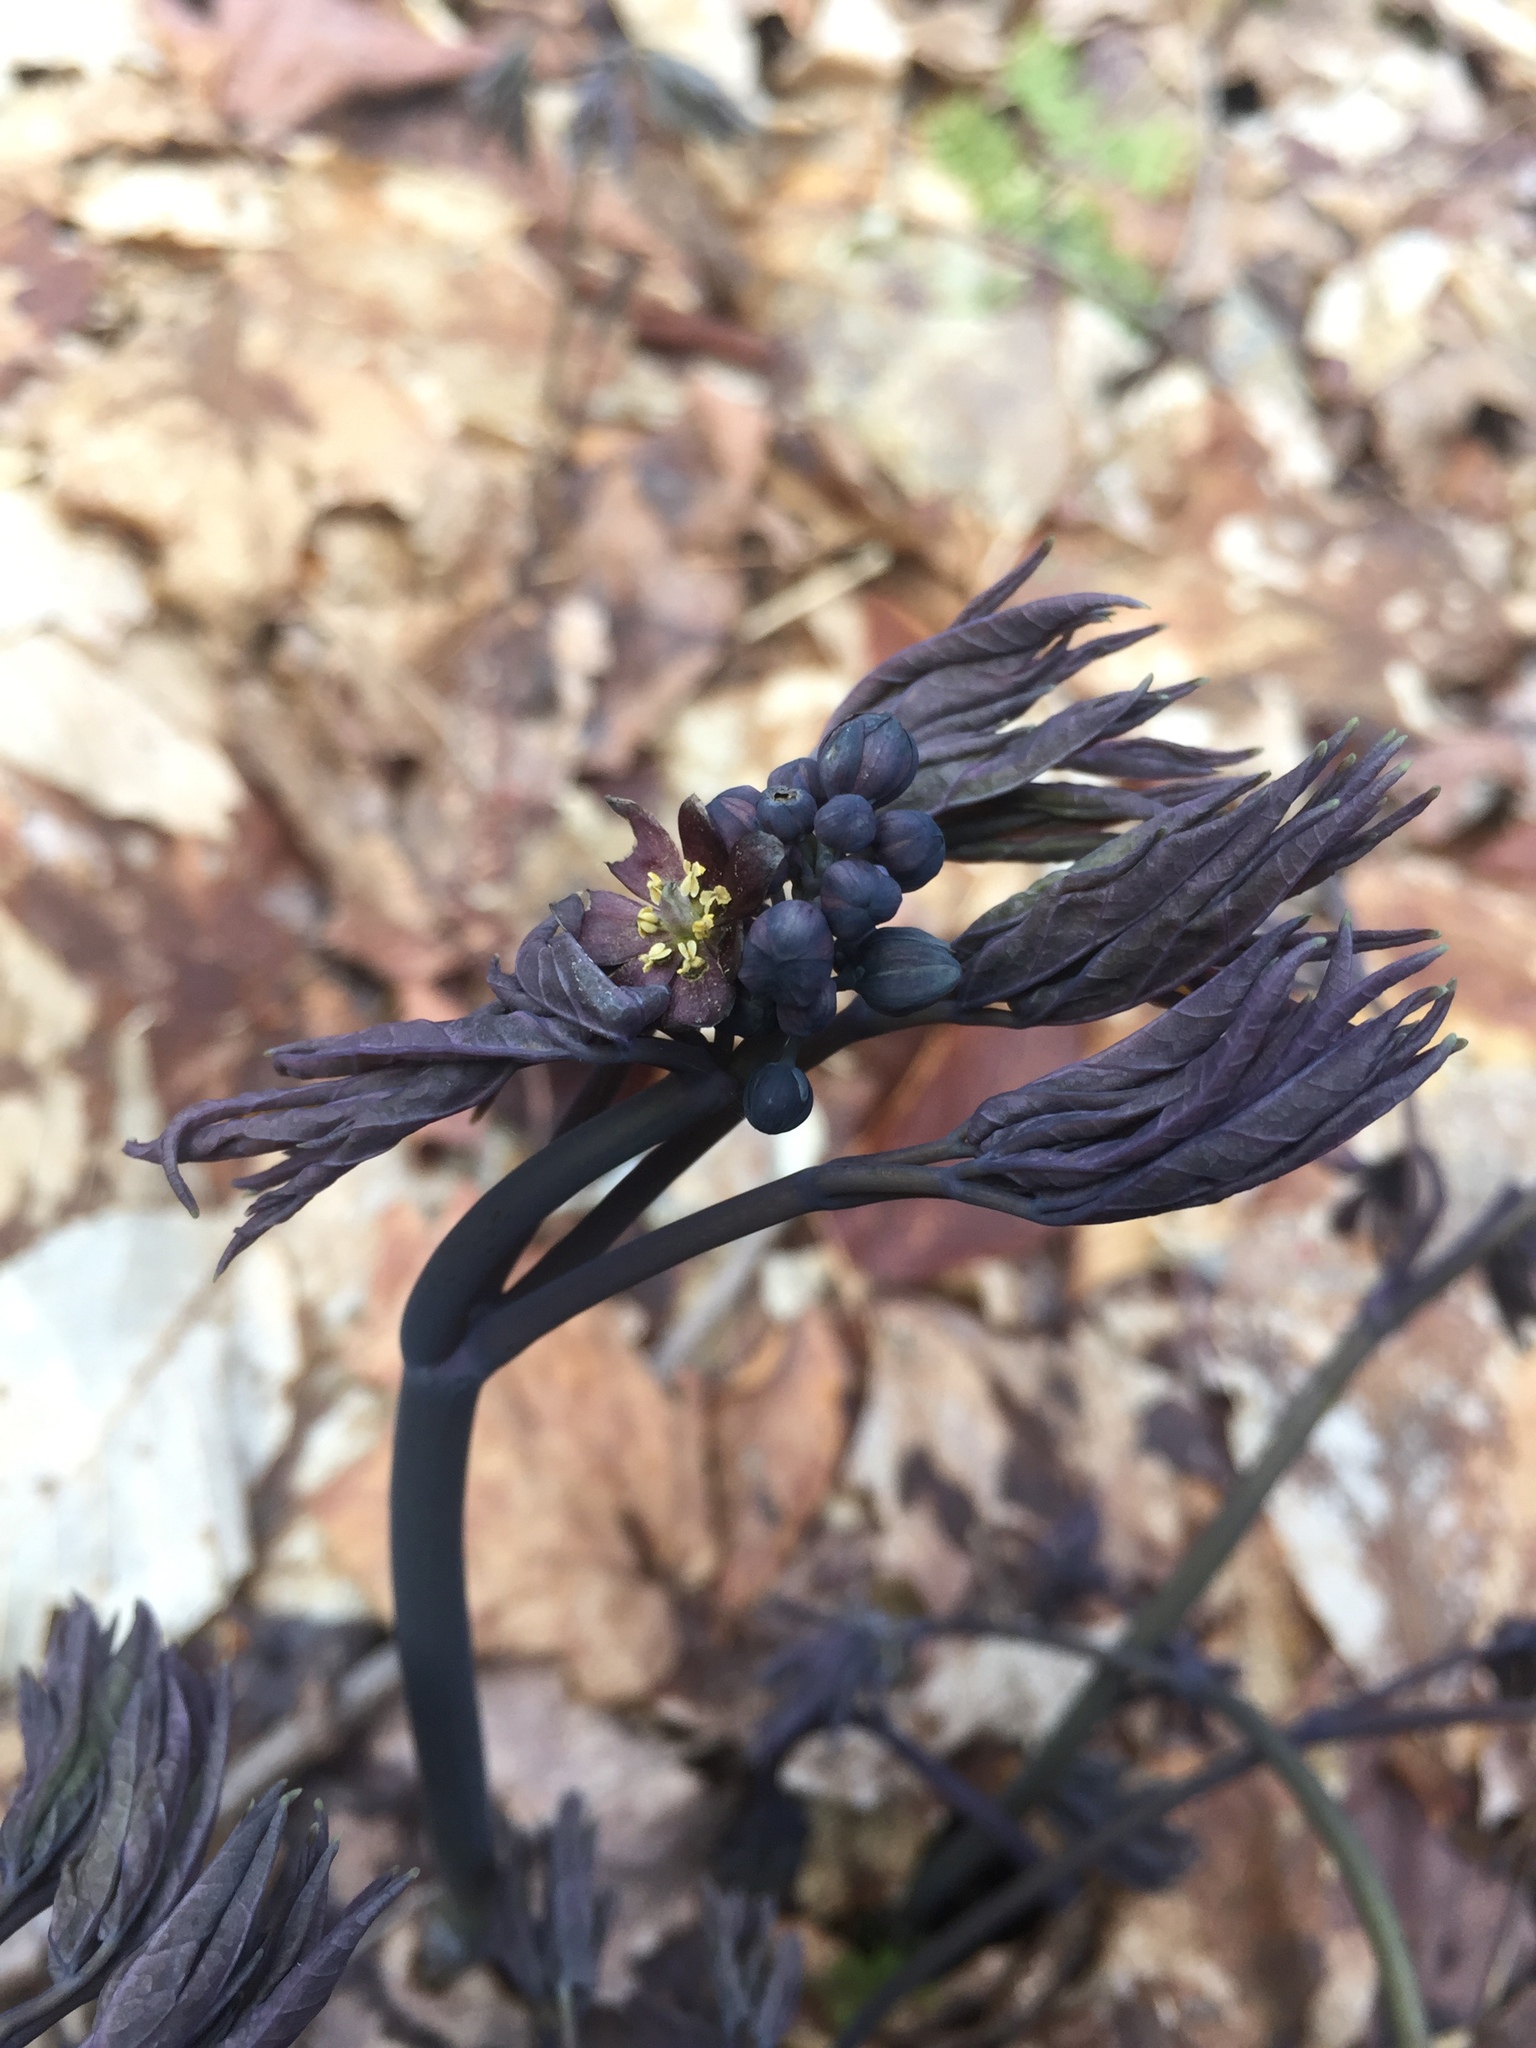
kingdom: Plantae
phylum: Tracheophyta
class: Magnoliopsida
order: Ranunculales
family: Berberidaceae
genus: Caulophyllum
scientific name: Caulophyllum giganteum
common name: Blue cohosh
